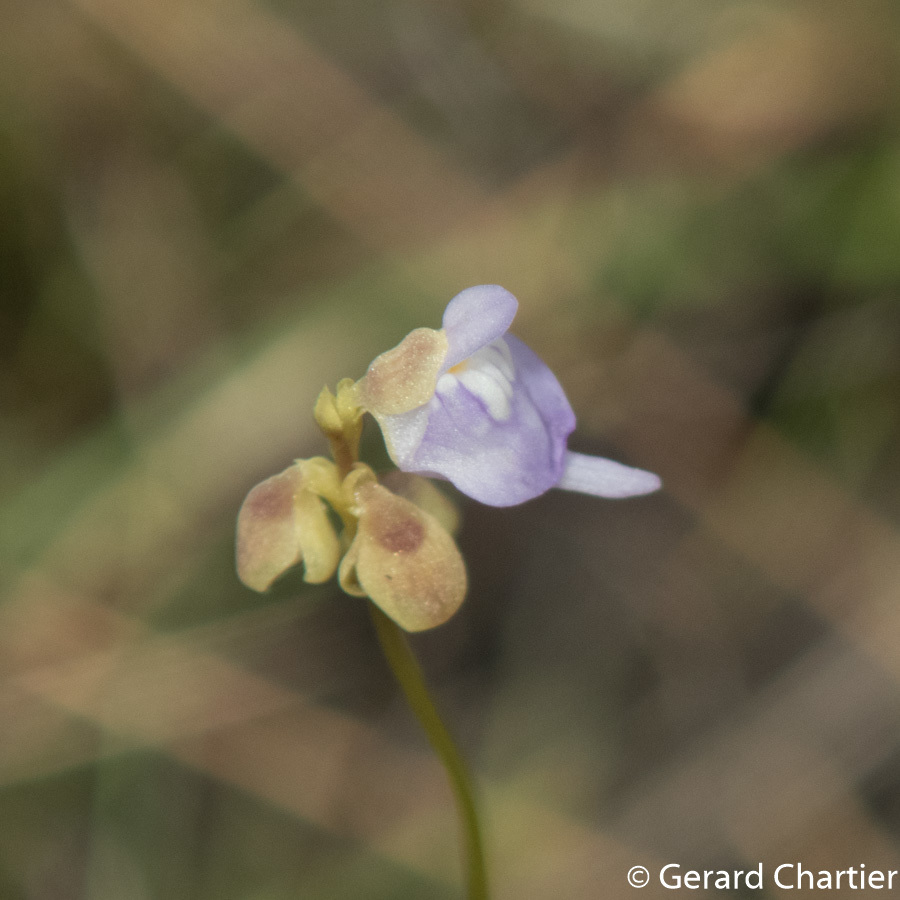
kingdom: Plantae
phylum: Tracheophyta
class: Magnoliopsida
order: Lamiales
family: Lentibulariaceae
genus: Utricularia
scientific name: Utricularia caerulea
